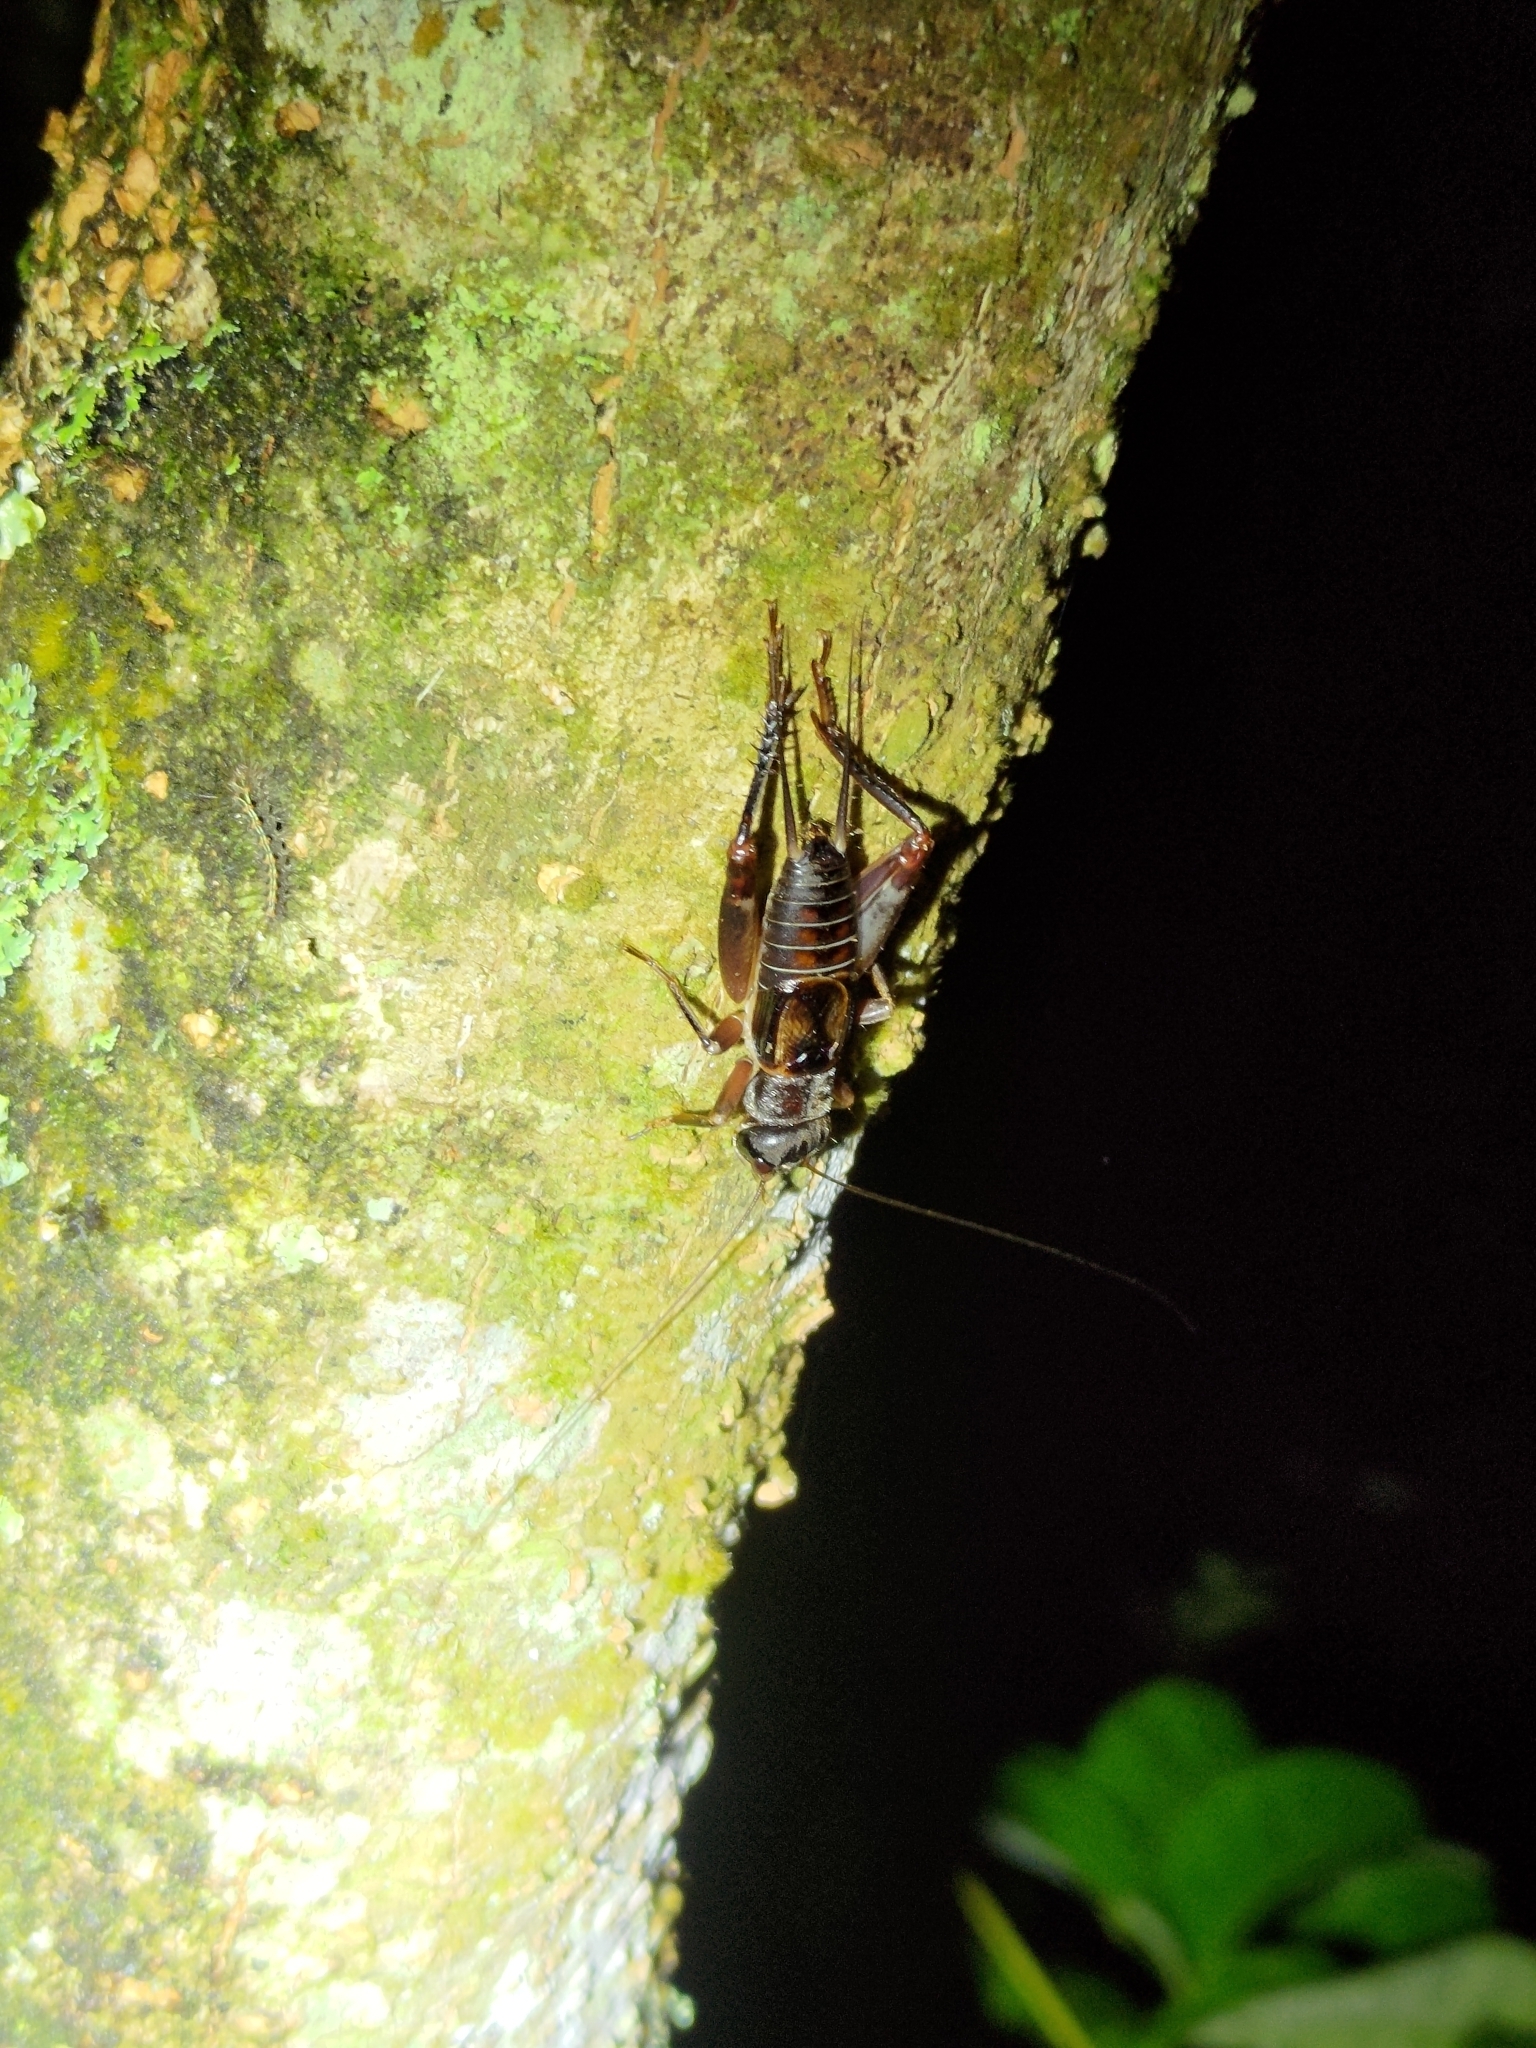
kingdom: Animalia
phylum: Arthropoda
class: Insecta
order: Orthoptera
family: Gryllidae
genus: Duolandrevus
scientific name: Duolandrevus coulonianus
